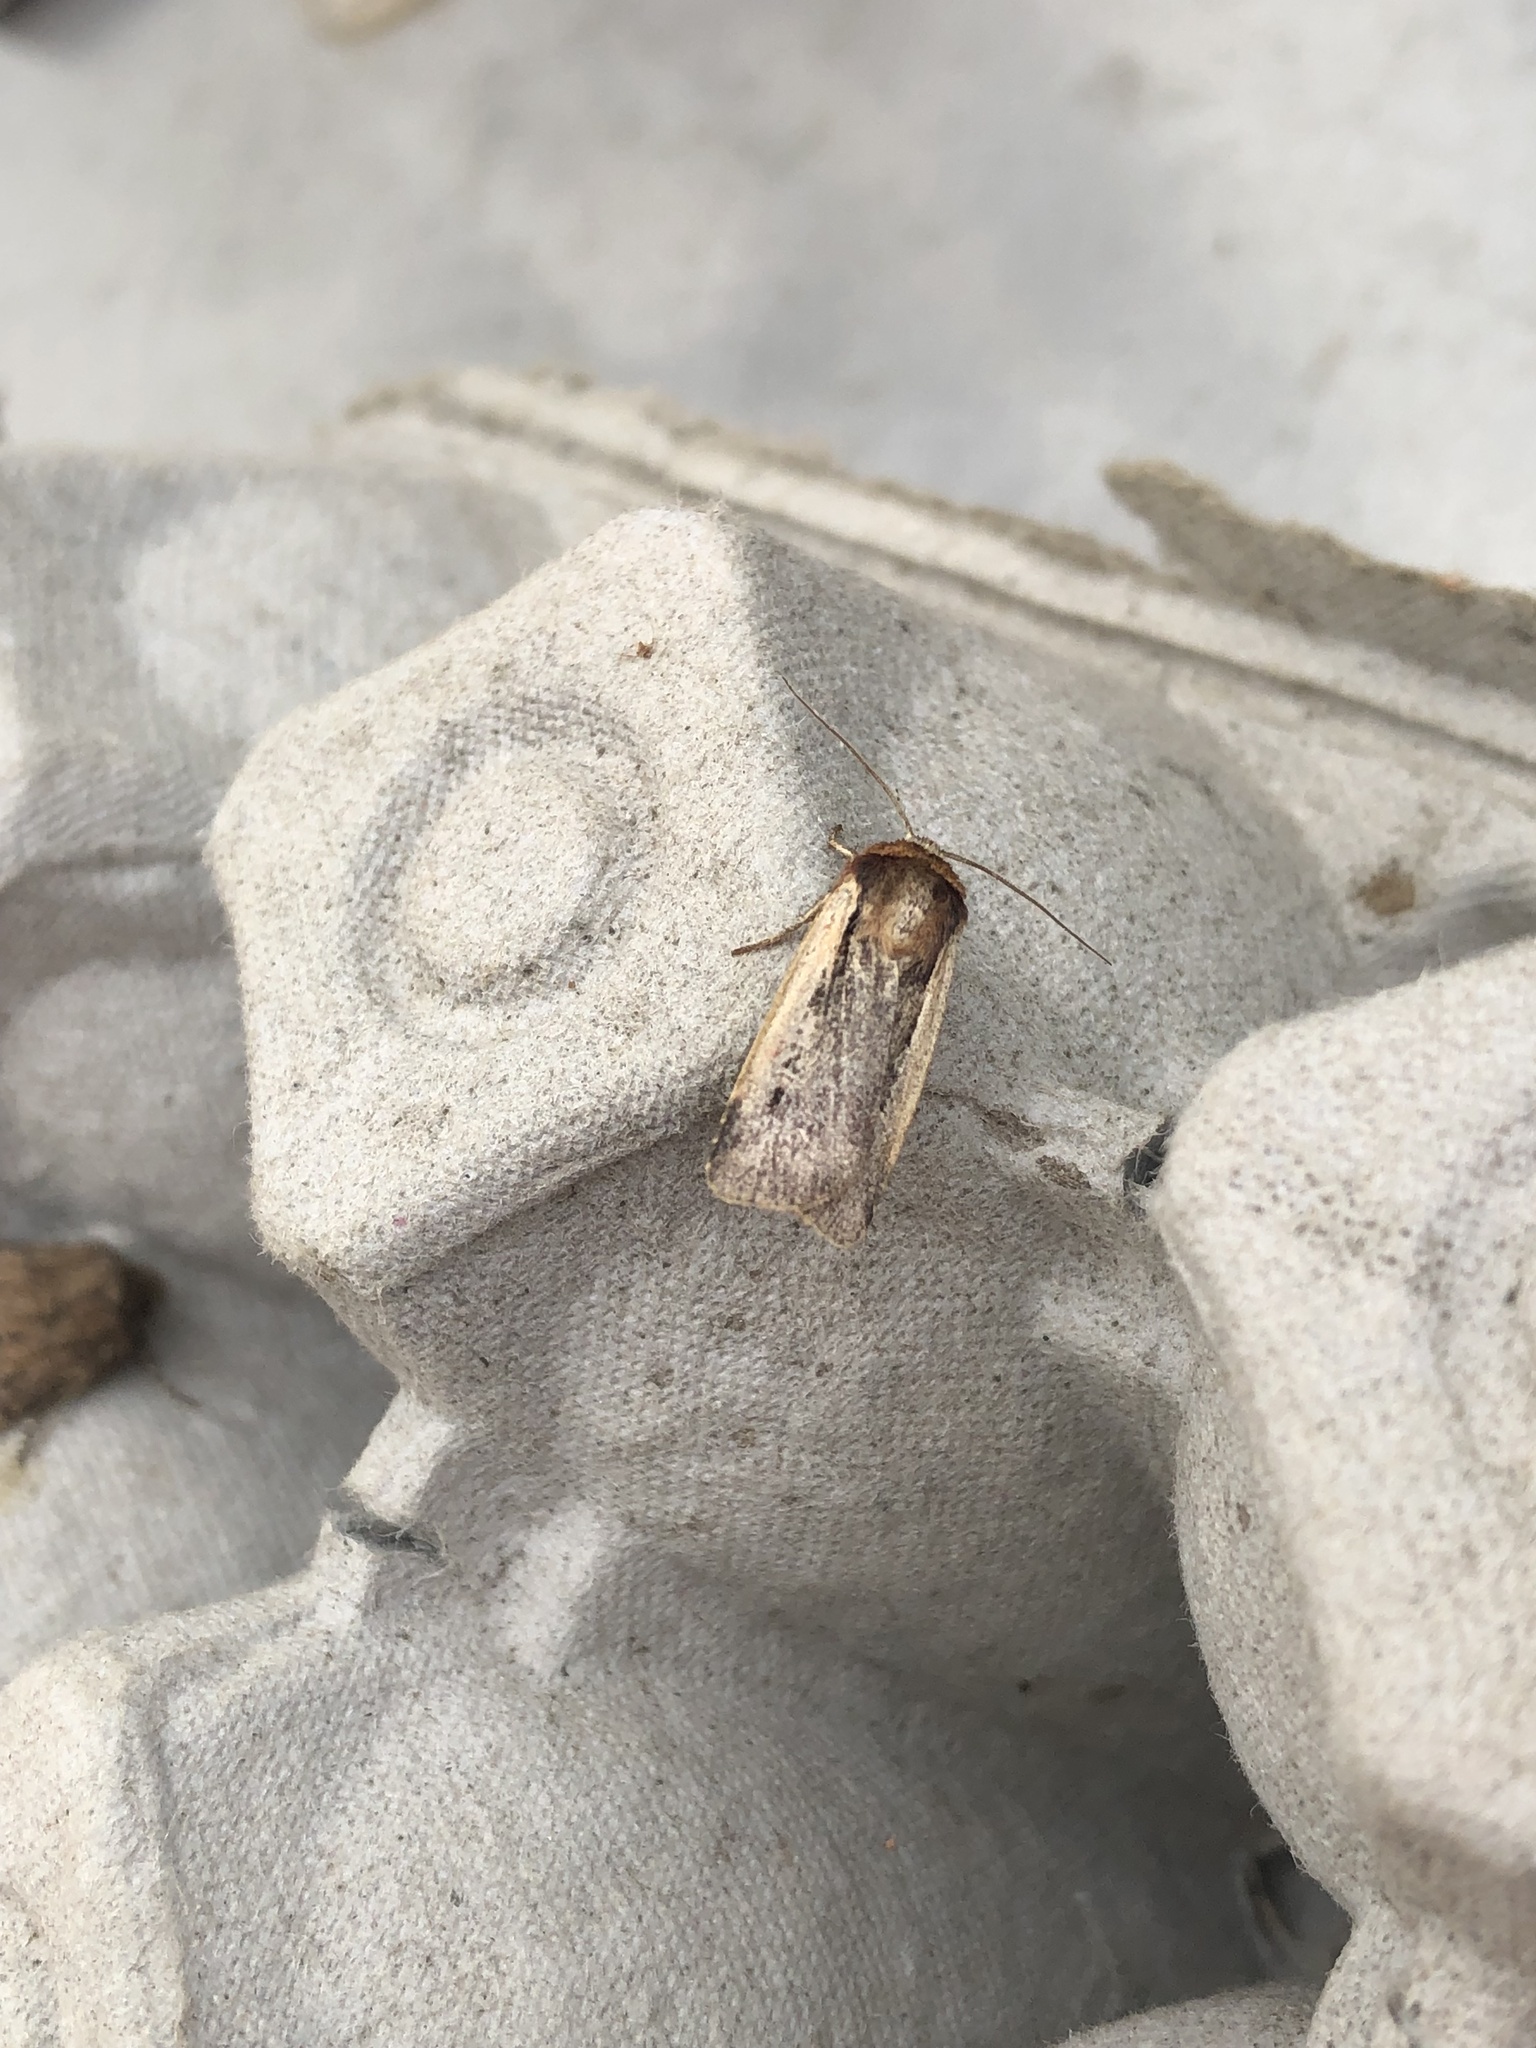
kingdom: Animalia
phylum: Arthropoda
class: Insecta
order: Lepidoptera
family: Noctuidae
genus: Ochropleura
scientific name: Ochropleura plecta
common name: Flame shoulder
